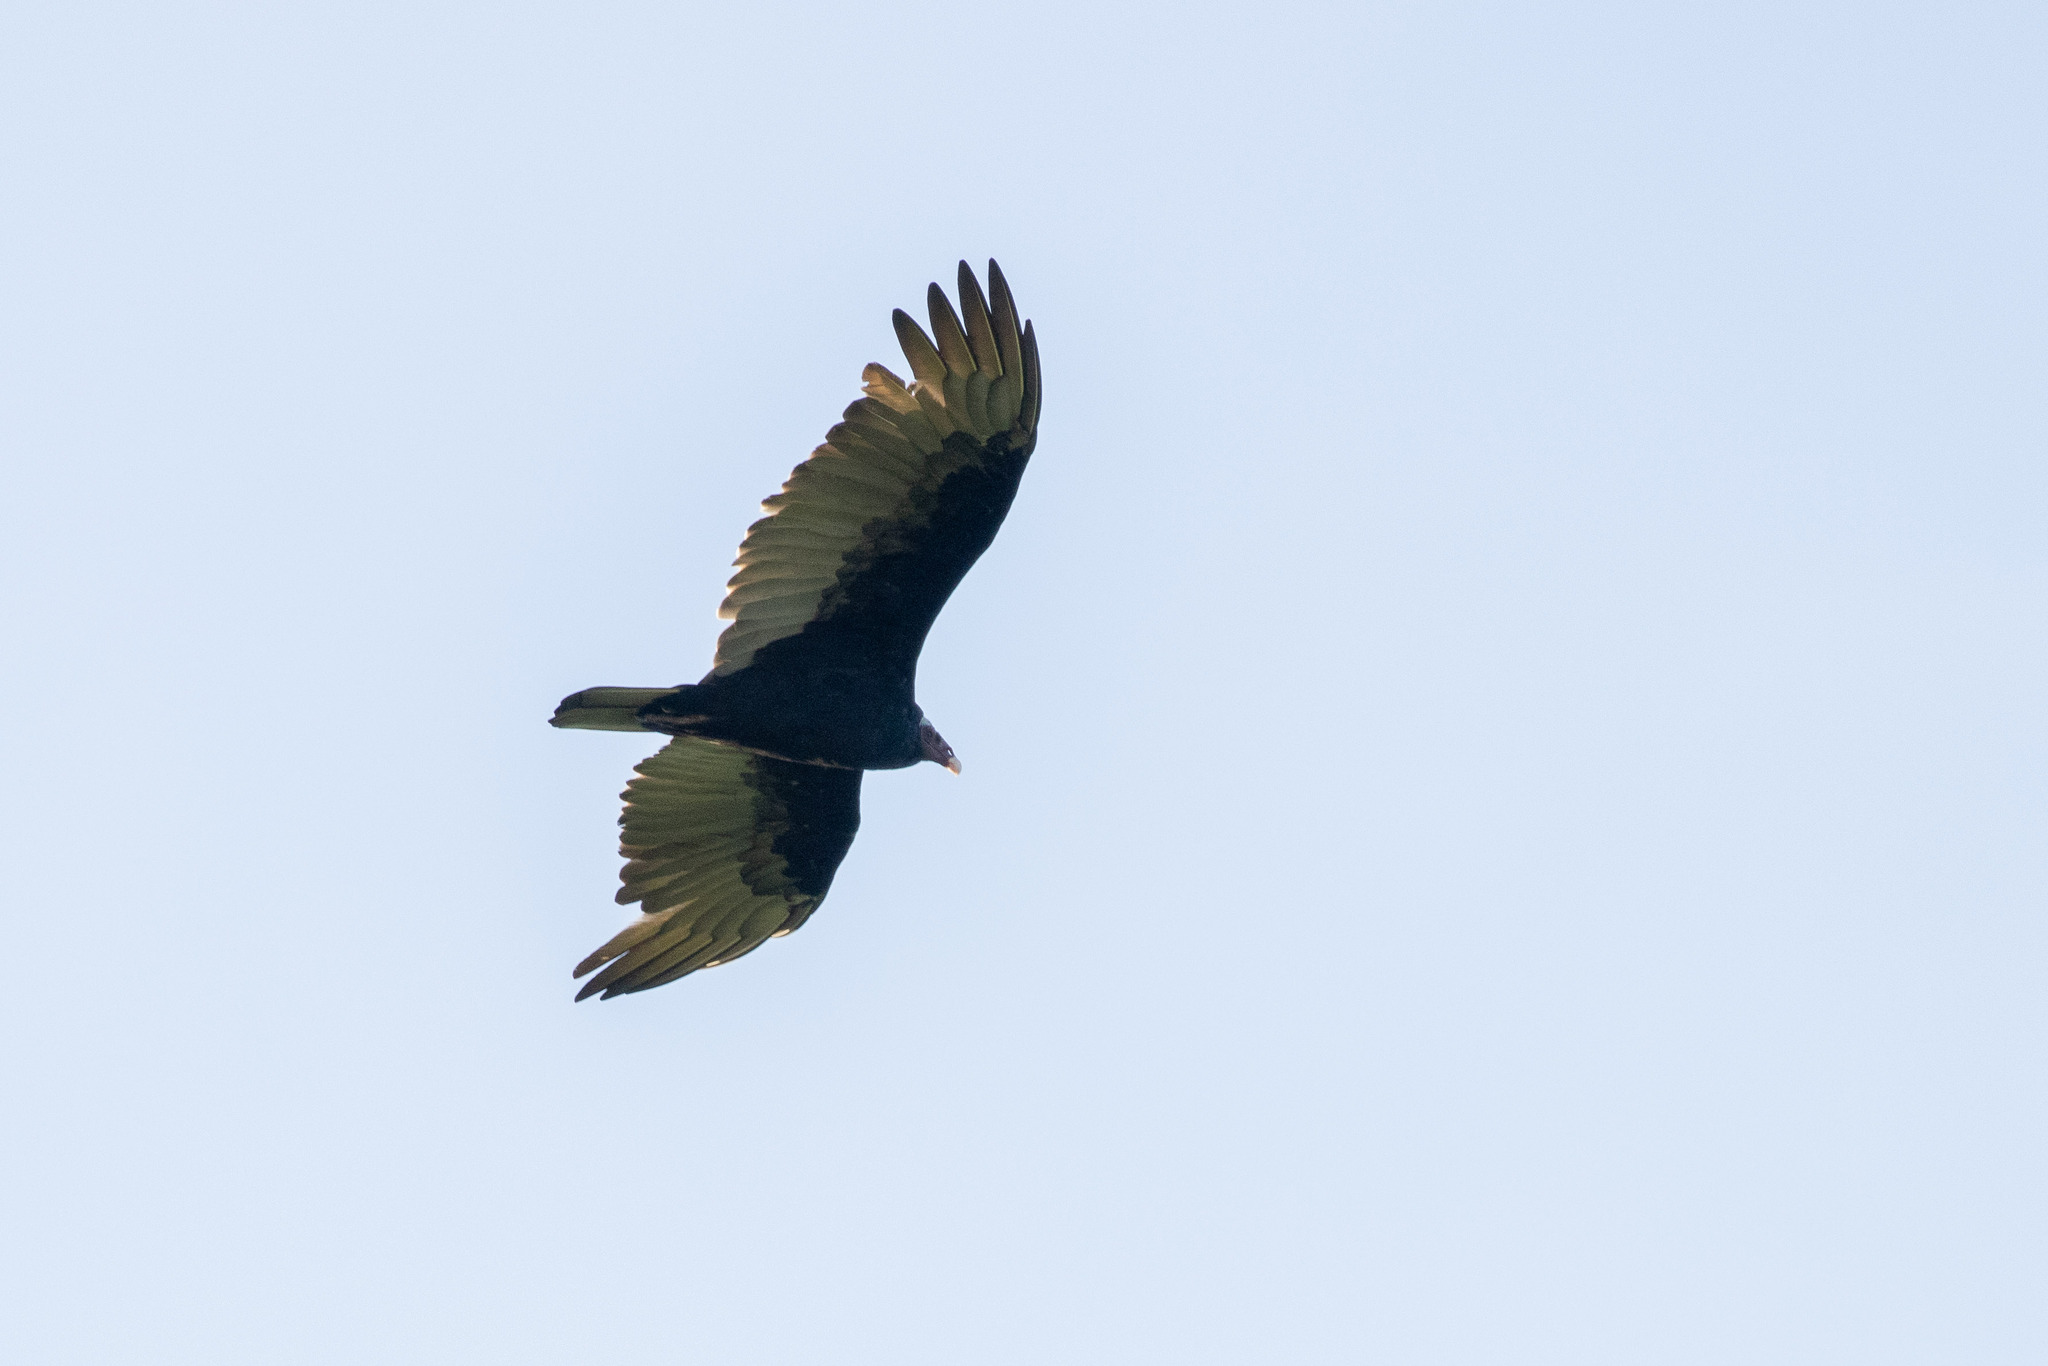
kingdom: Animalia
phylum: Chordata
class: Aves
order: Accipitriformes
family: Cathartidae
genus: Cathartes
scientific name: Cathartes aura
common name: Turkey vulture
